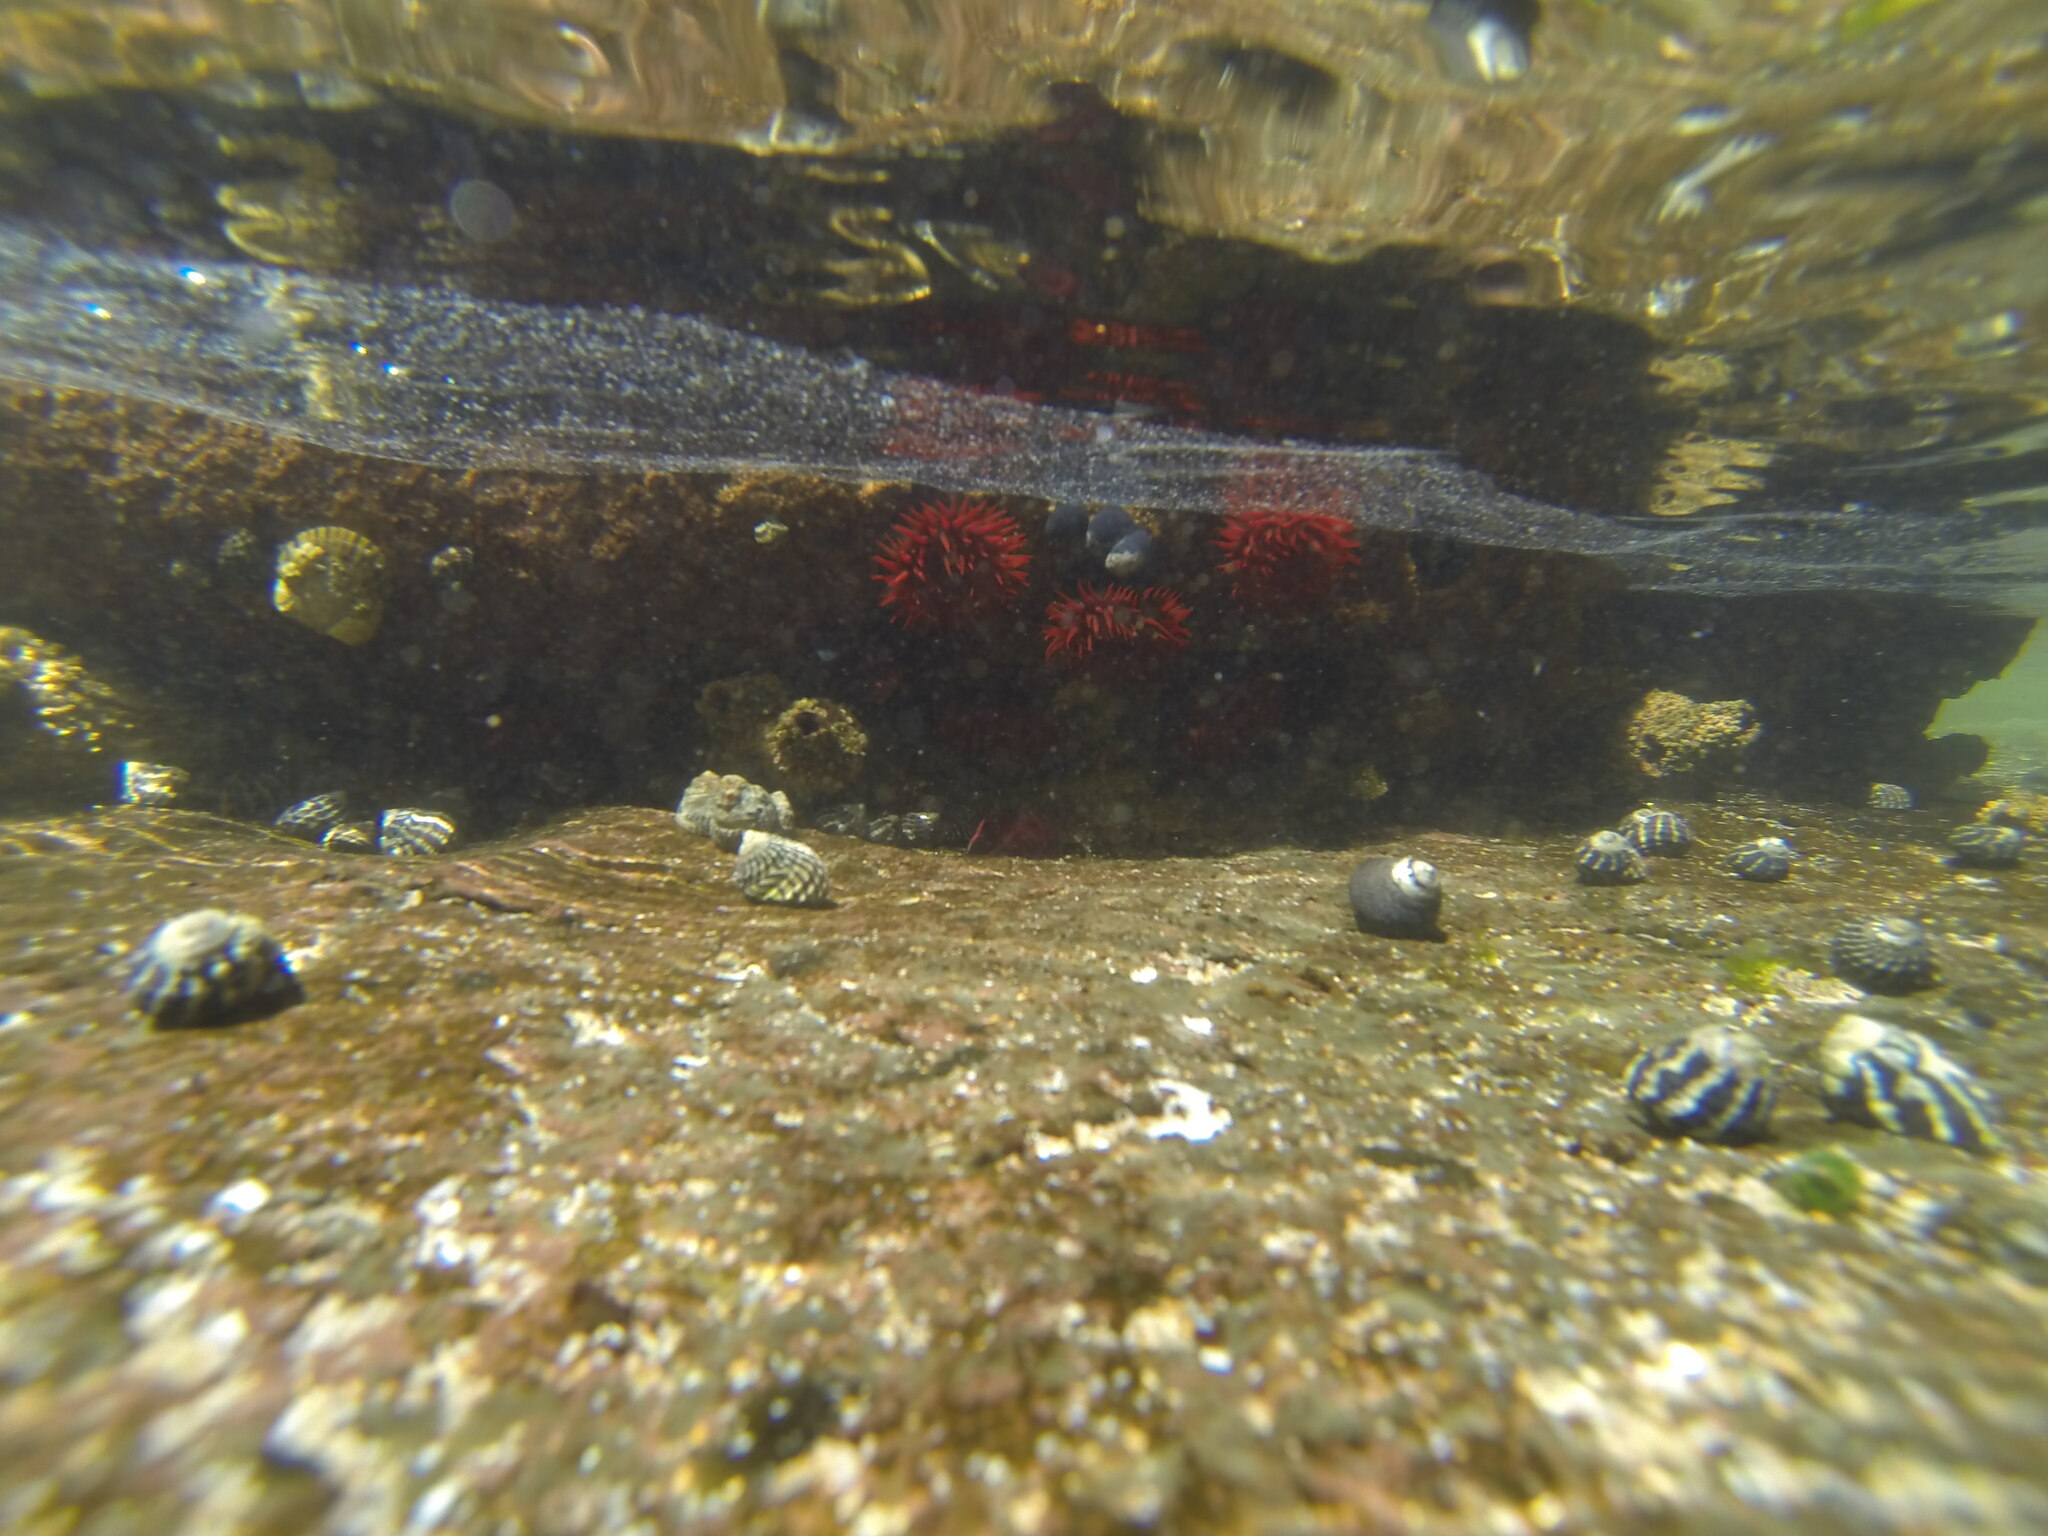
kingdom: Animalia
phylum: Cnidaria
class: Anthozoa
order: Actiniaria
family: Actiniidae
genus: Actinia
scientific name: Actinia tenebrosa
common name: Waratah anemone
